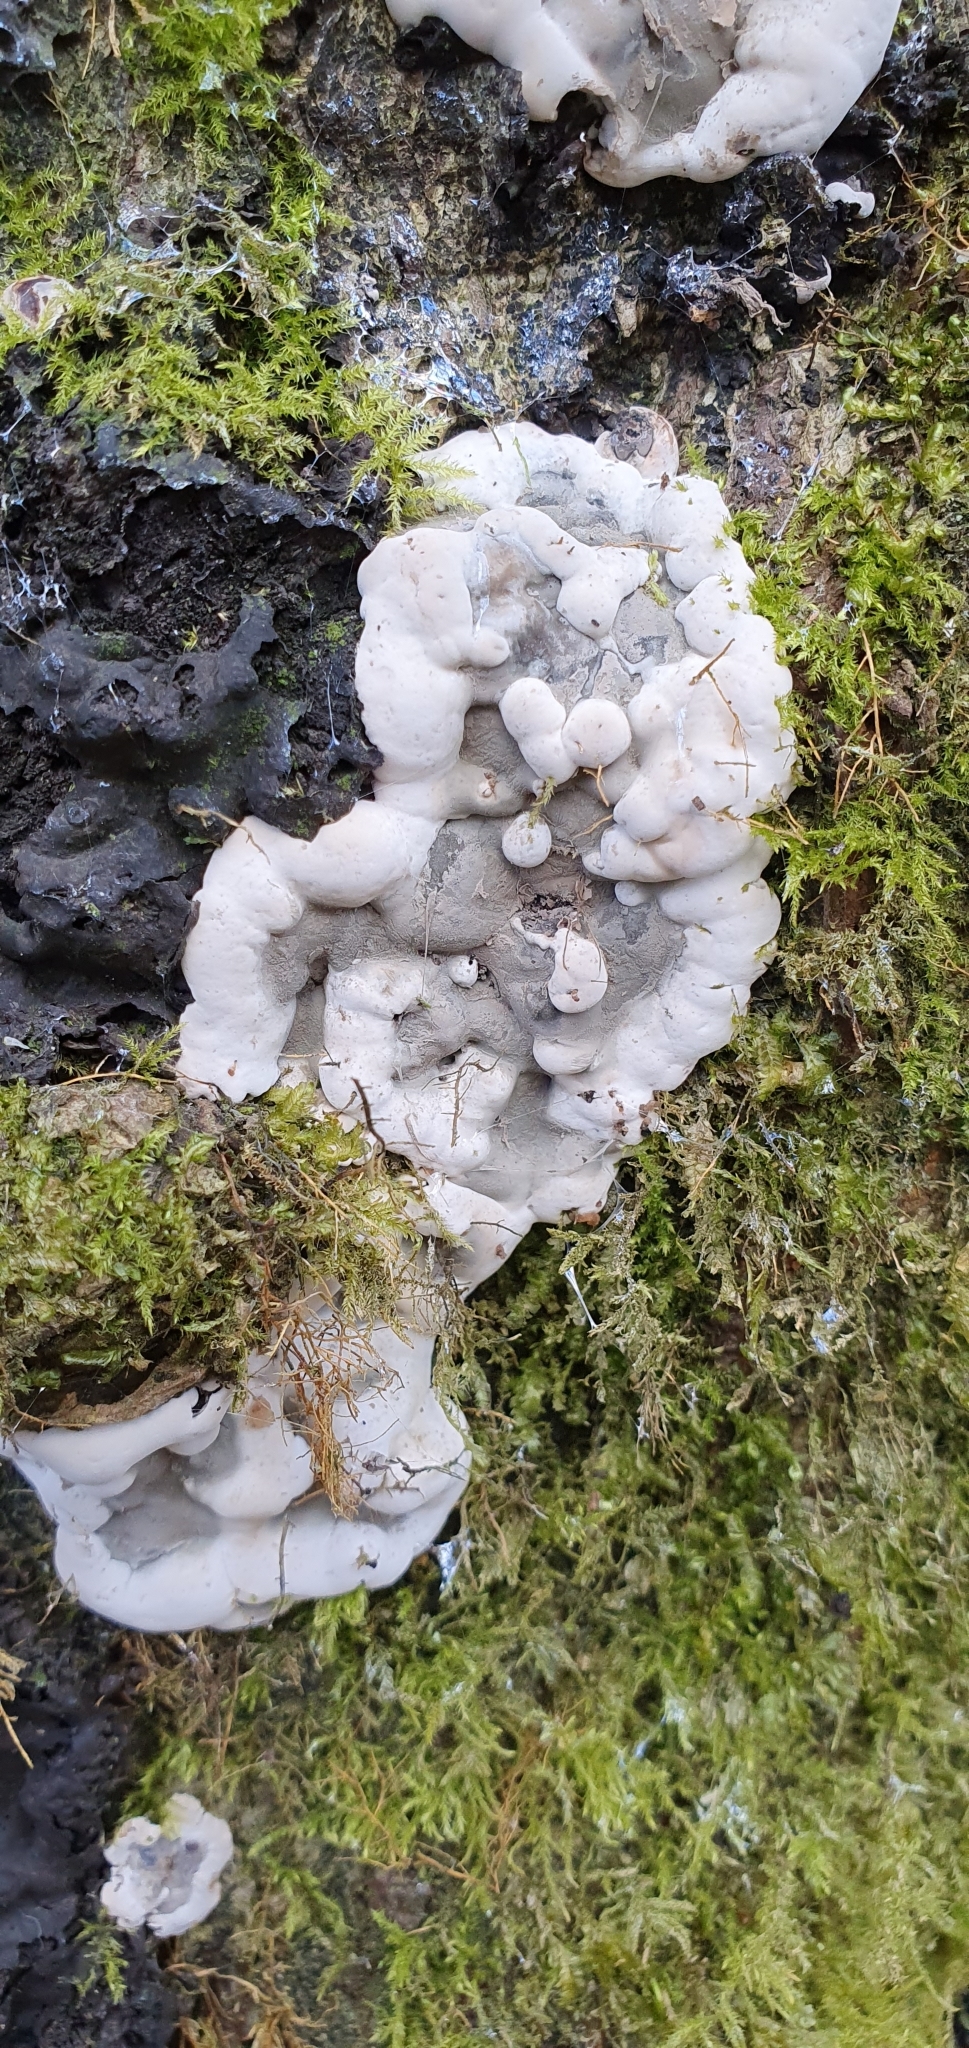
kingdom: Fungi
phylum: Ascomycota
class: Sordariomycetes
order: Xylariales
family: Xylariaceae
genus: Kretzschmaria
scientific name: Kretzschmaria deusta
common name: Brittle cinder
